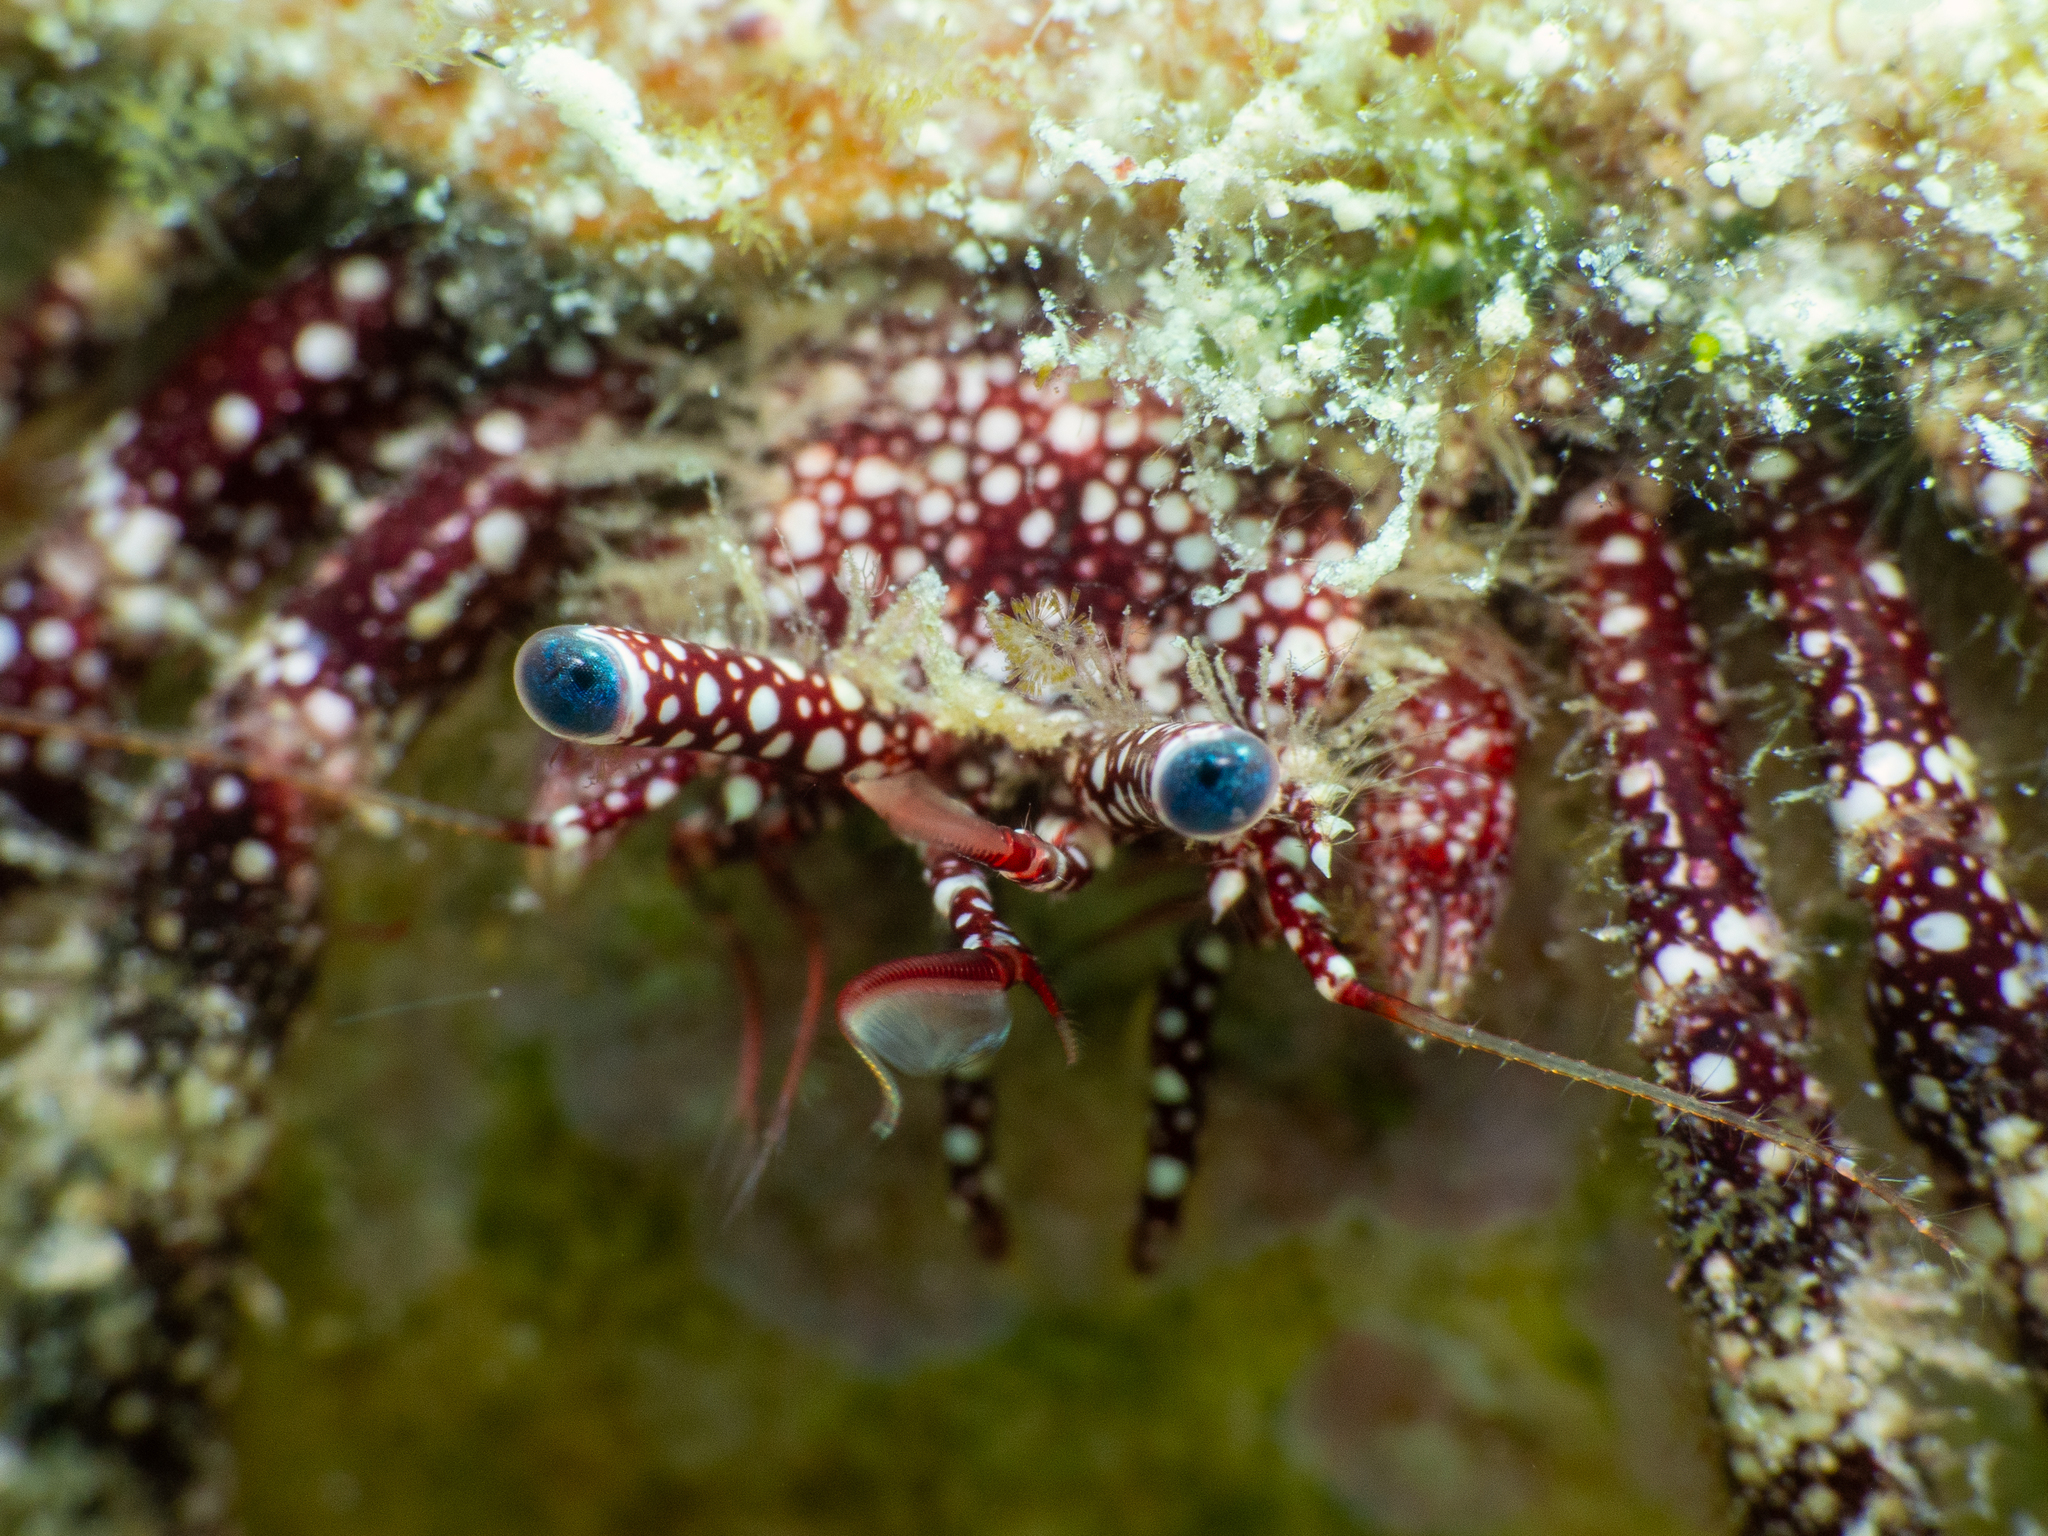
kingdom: Animalia
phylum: Arthropoda
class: Malacostraca
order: Decapoda
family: Diogenidae
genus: Paguristes
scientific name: Paguristes puncticeps
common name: White speckled hermit
